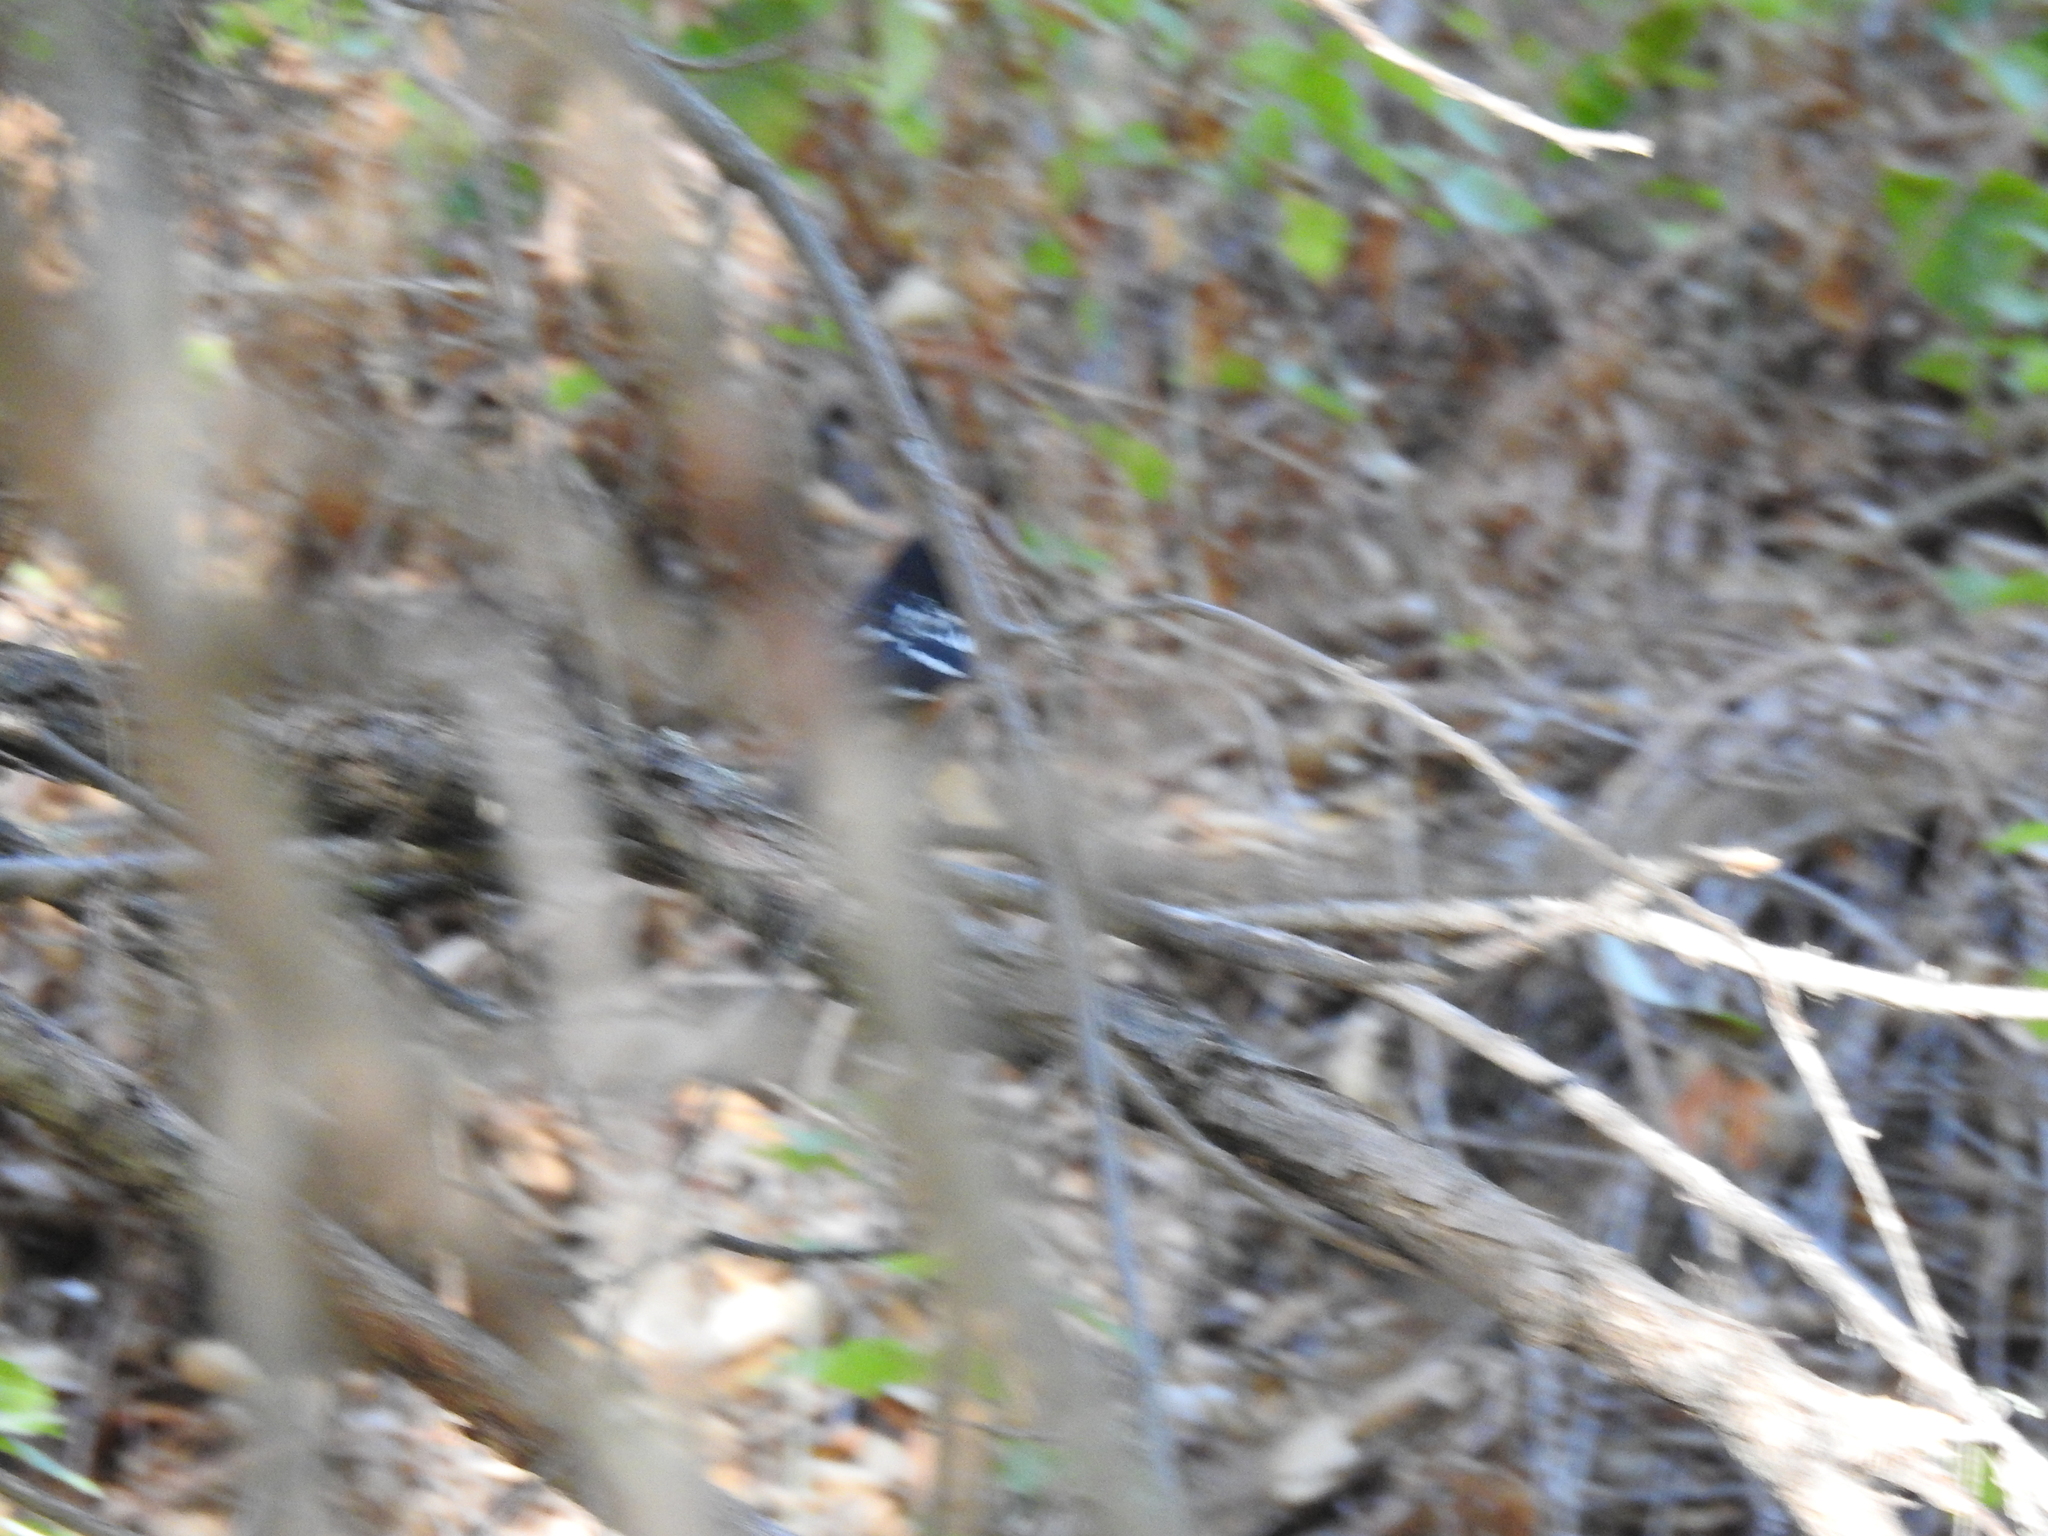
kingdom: Animalia
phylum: Chordata
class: Aves
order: Passeriformes
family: Passerellidae
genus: Pipilo
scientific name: Pipilo maculatus
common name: Spotted towhee
